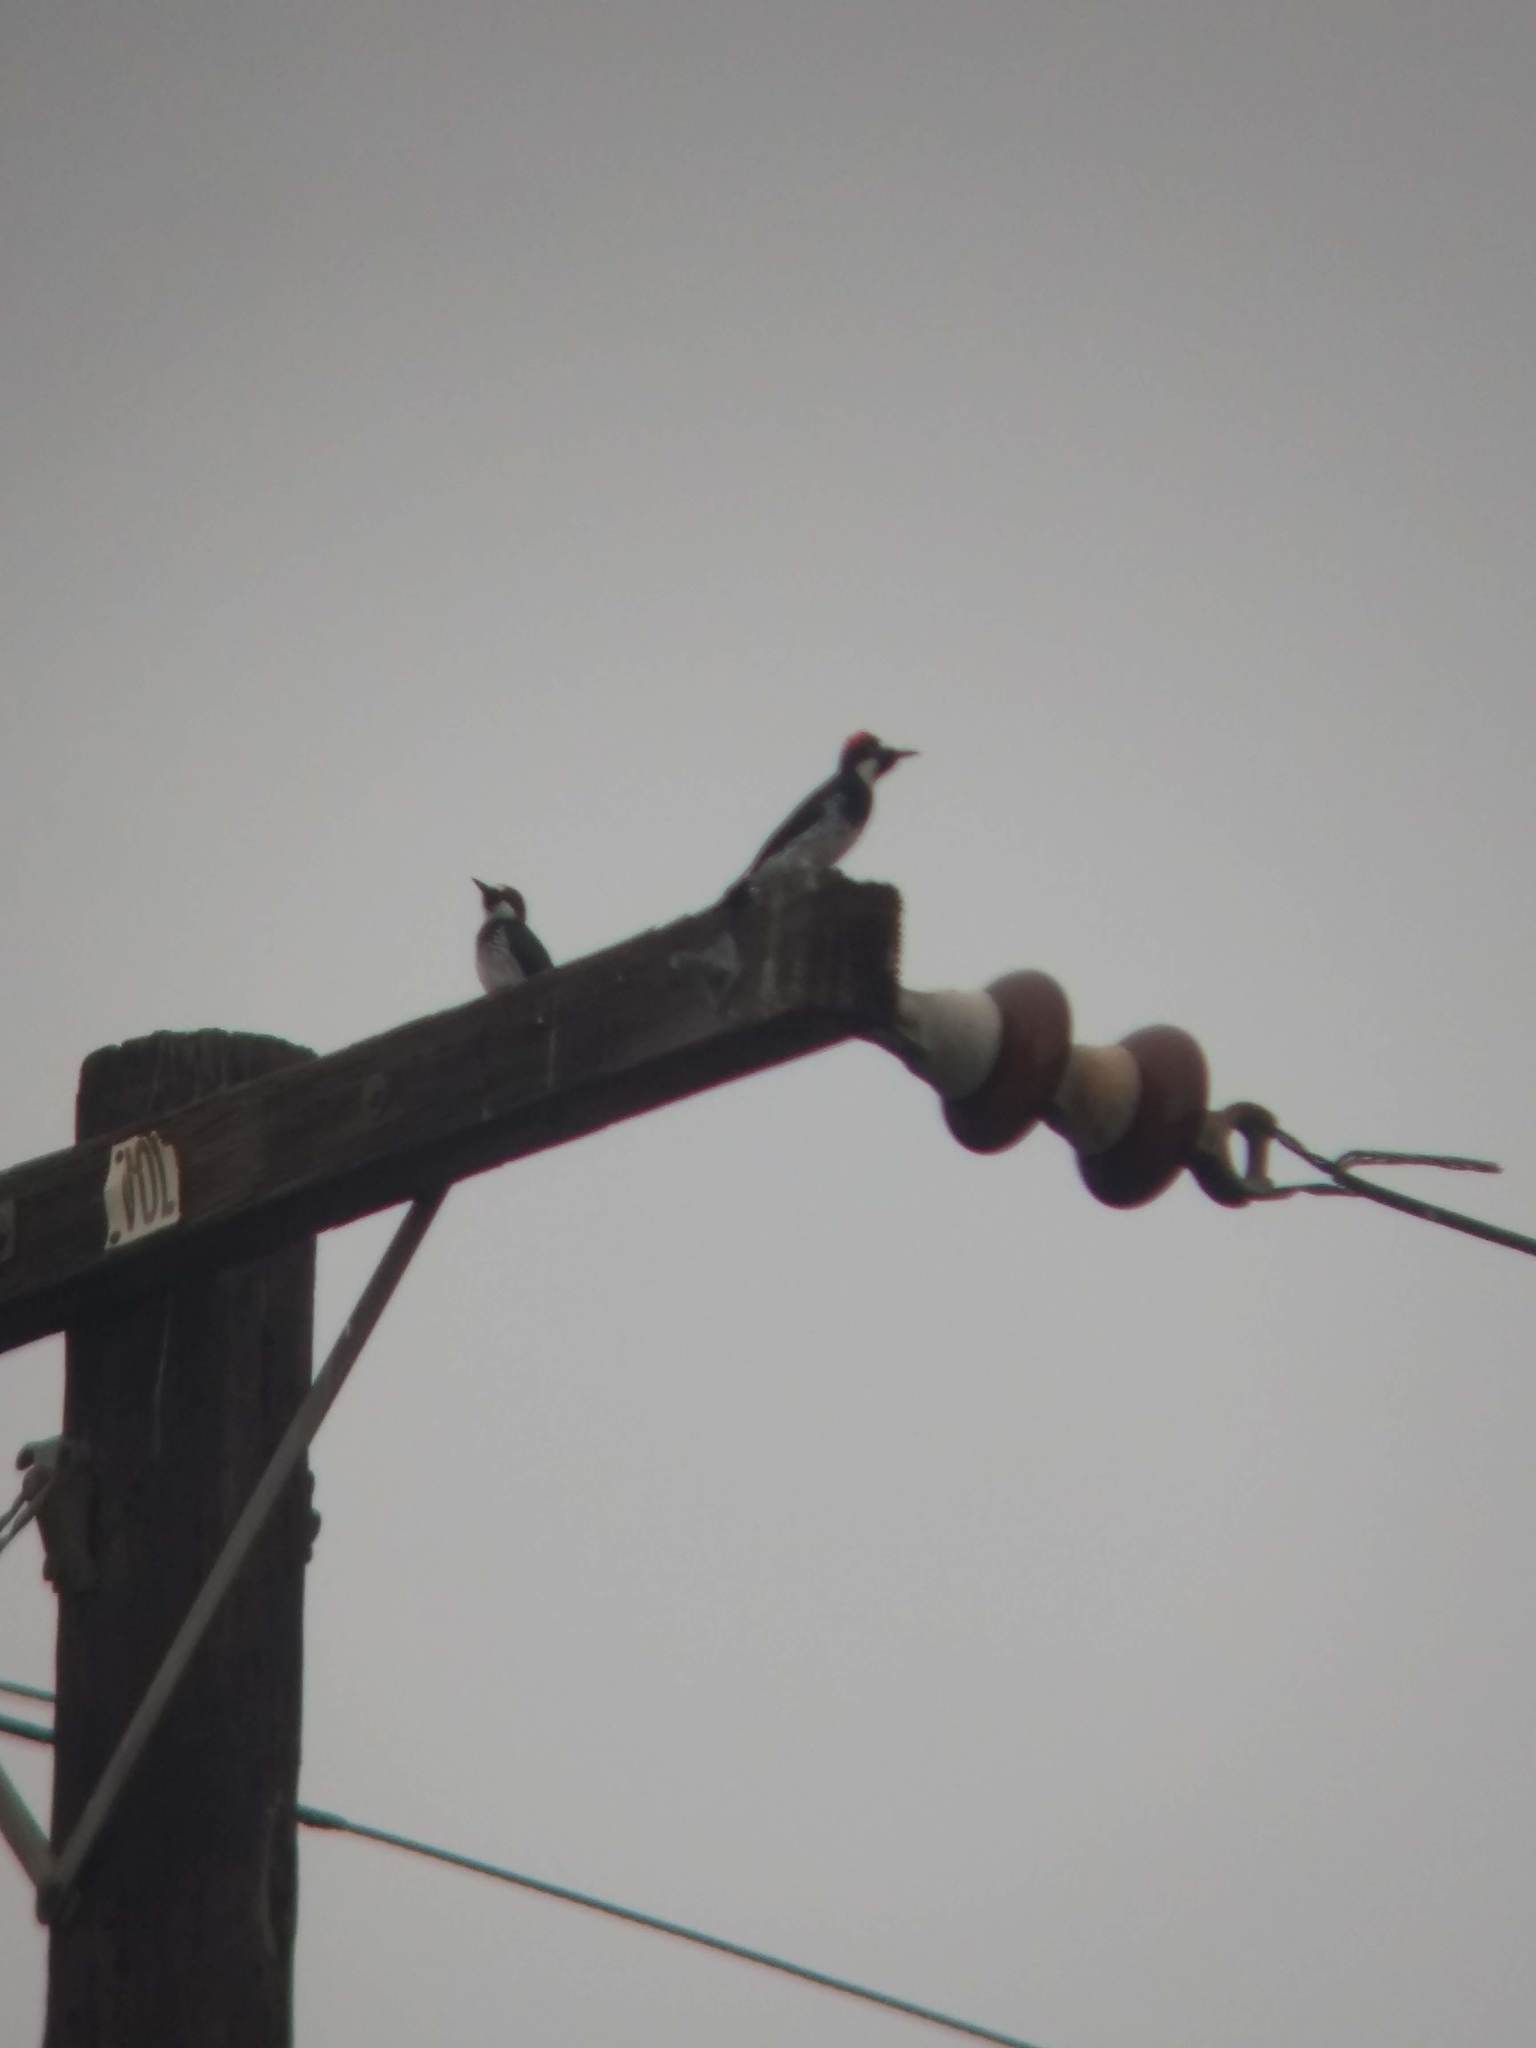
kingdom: Animalia
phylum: Chordata
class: Aves
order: Piciformes
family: Picidae
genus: Melanerpes
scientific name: Melanerpes formicivorus
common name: Acorn woodpecker
